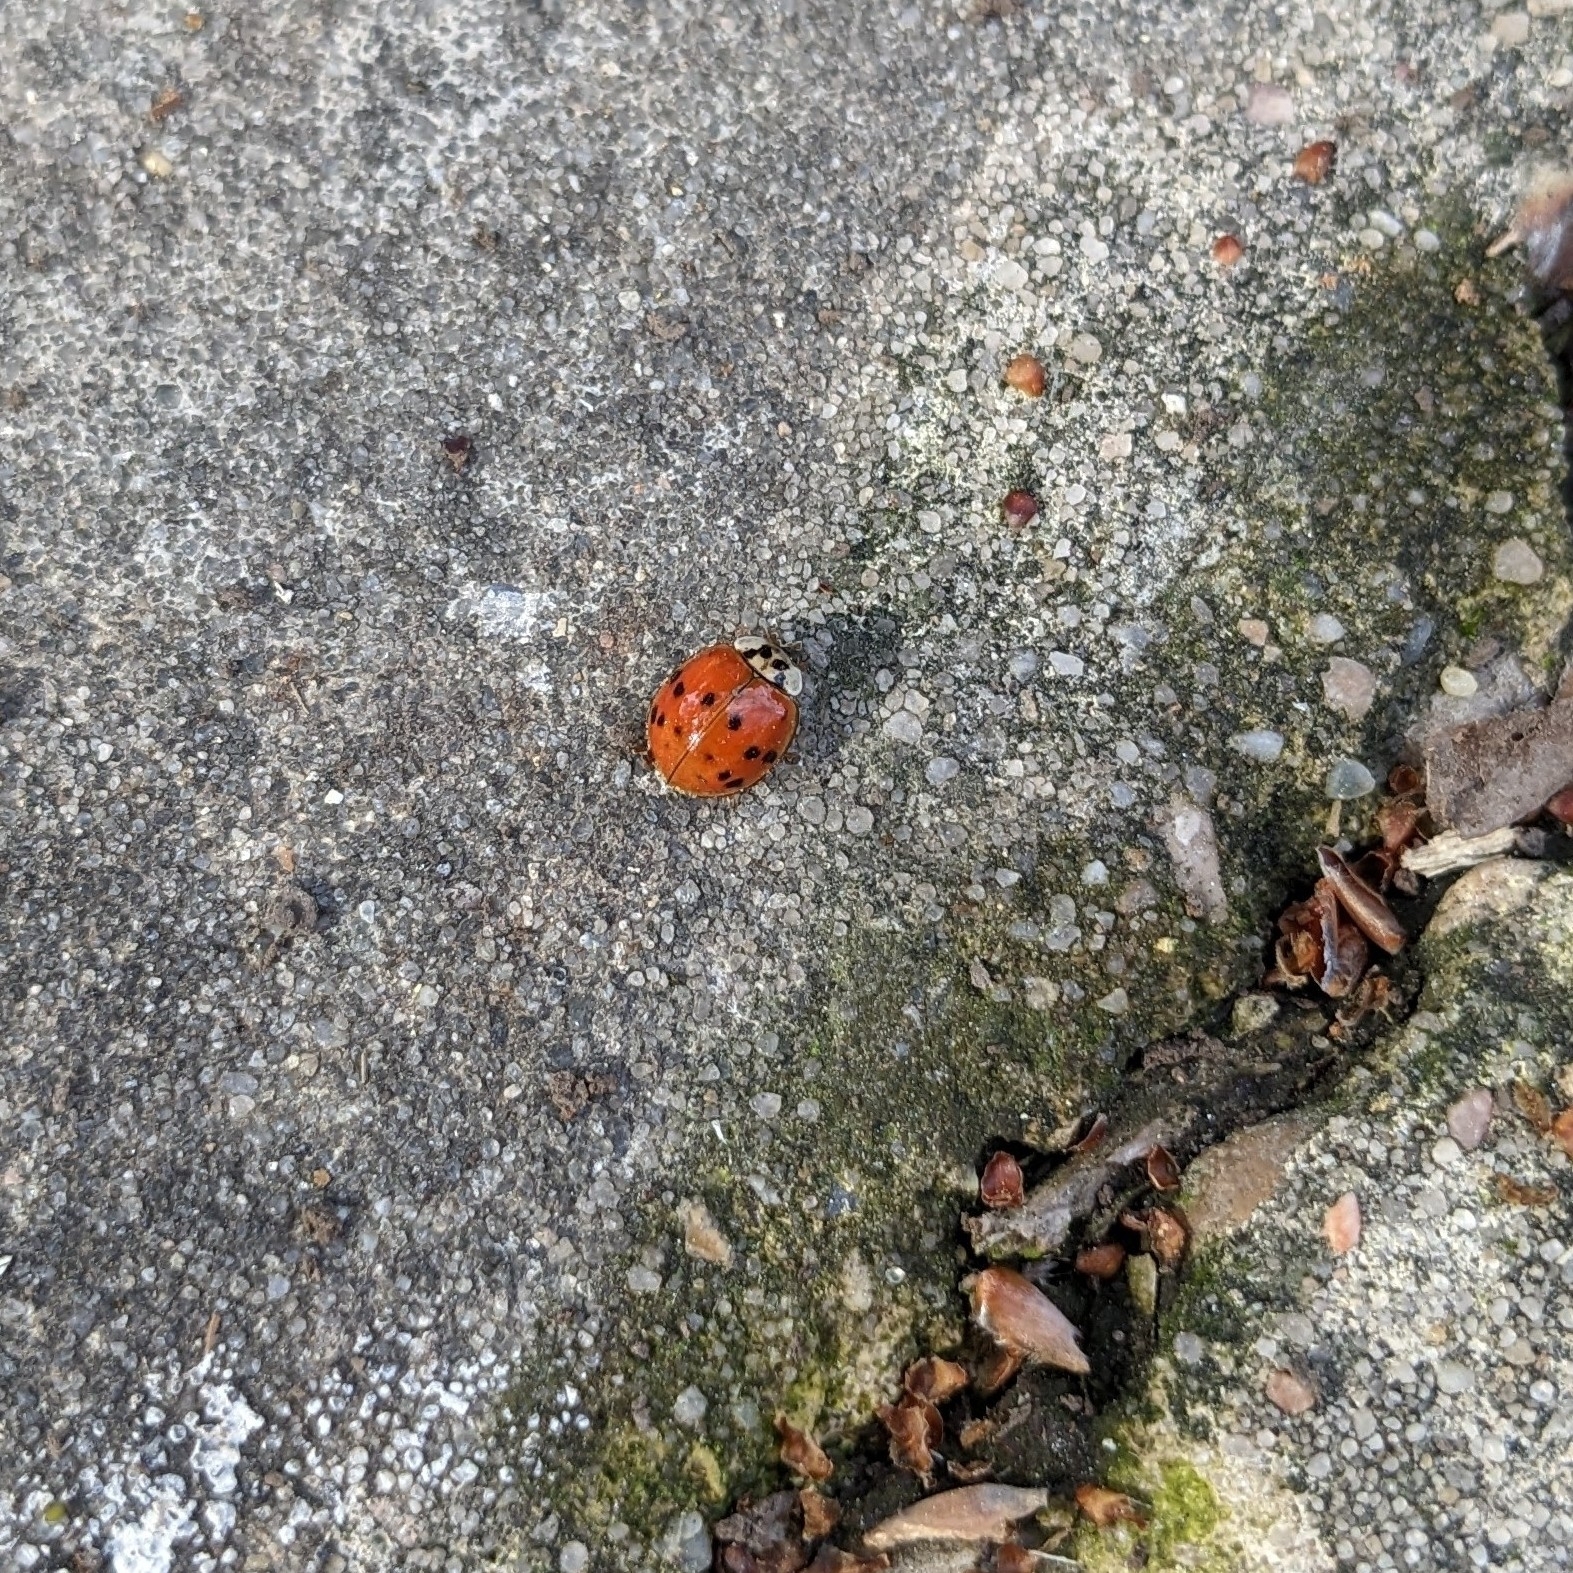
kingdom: Animalia
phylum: Arthropoda
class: Insecta
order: Coleoptera
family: Coccinellidae
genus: Harmonia
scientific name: Harmonia axyridis
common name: Harlequin ladybird
